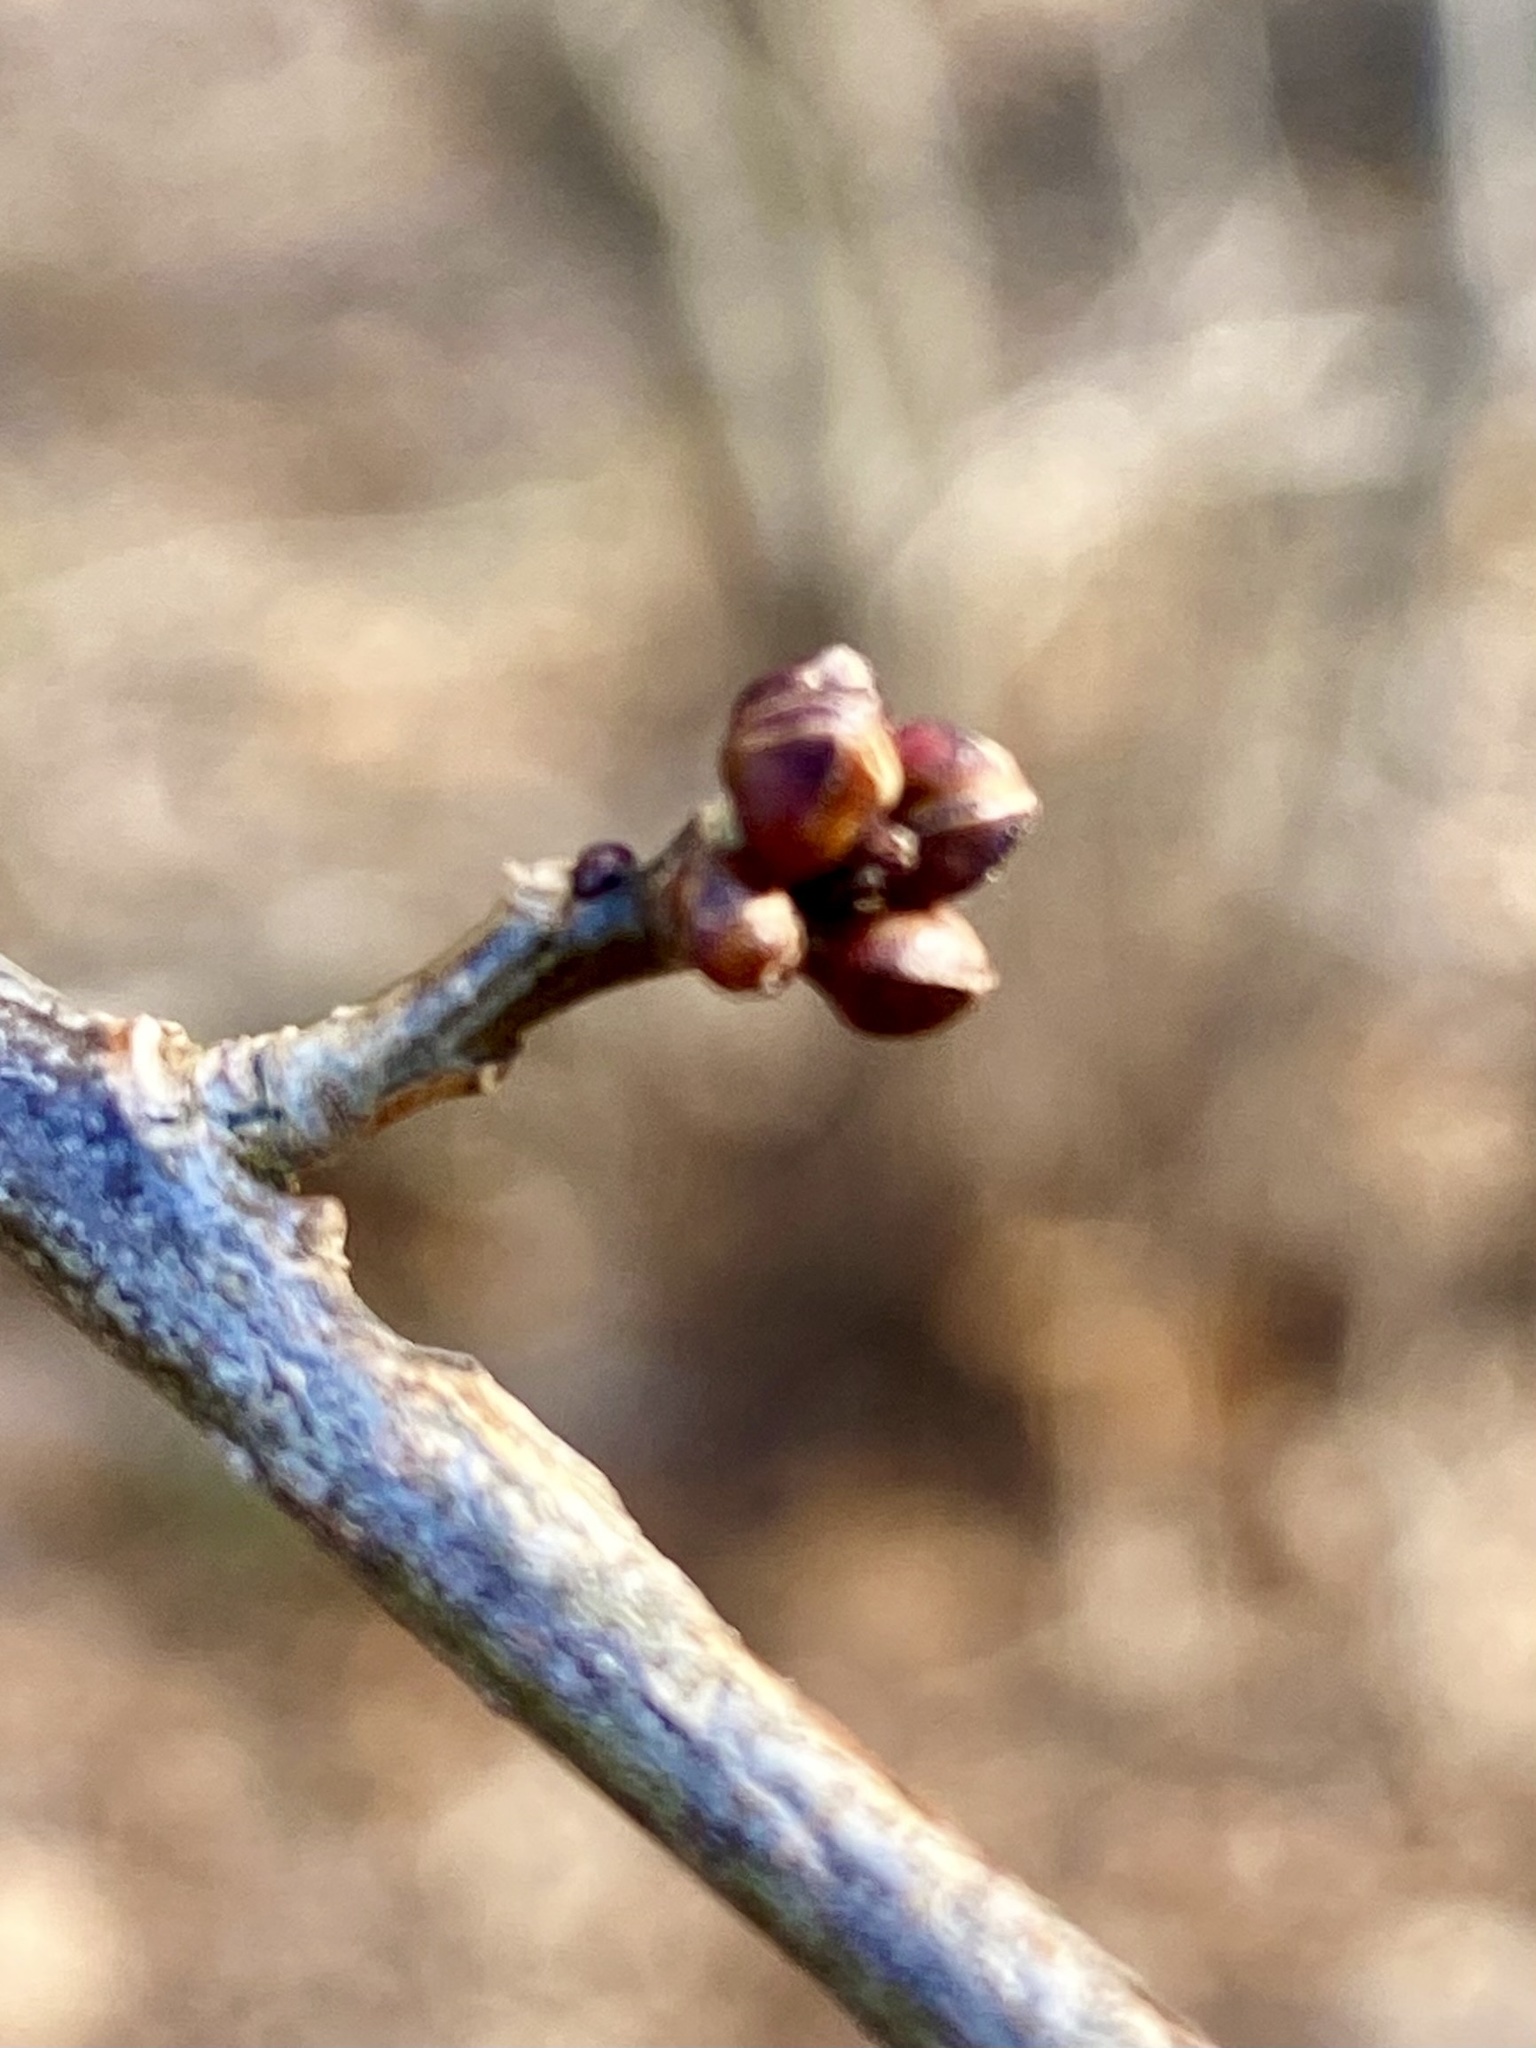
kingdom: Plantae
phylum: Tracheophyta
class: Magnoliopsida
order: Laurales
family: Lauraceae
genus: Lindera
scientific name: Lindera benzoin
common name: Spicebush
